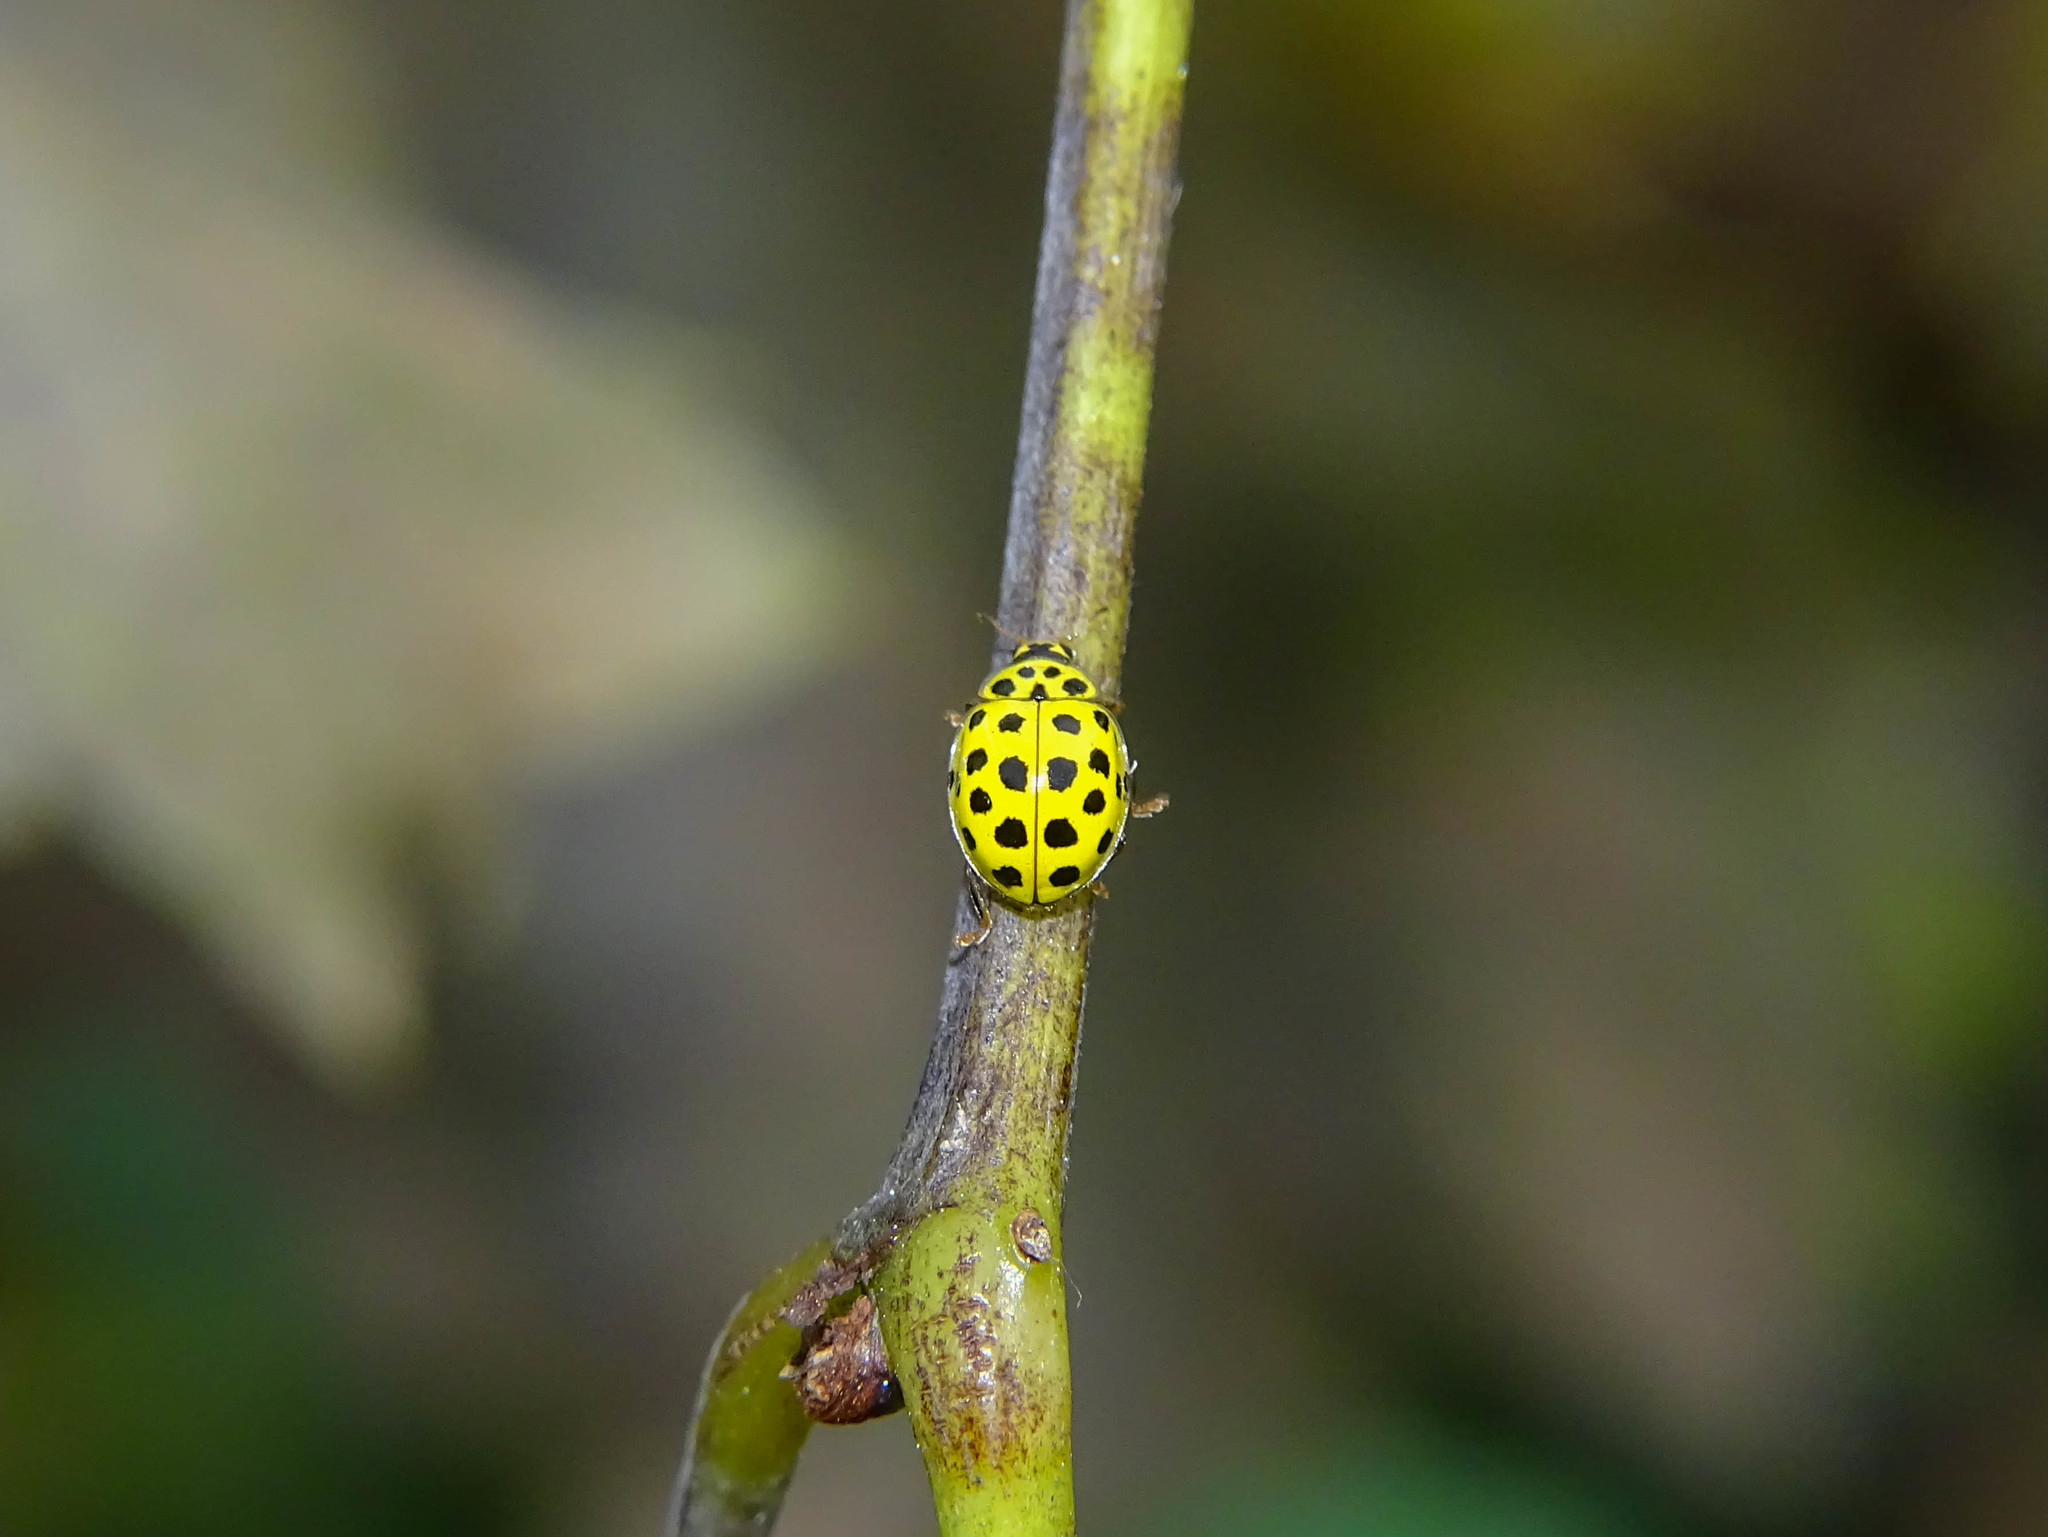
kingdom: Animalia
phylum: Arthropoda
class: Insecta
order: Coleoptera
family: Coccinellidae
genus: Psyllobora
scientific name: Psyllobora vigintiduopunctata
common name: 22-spot ladybird
